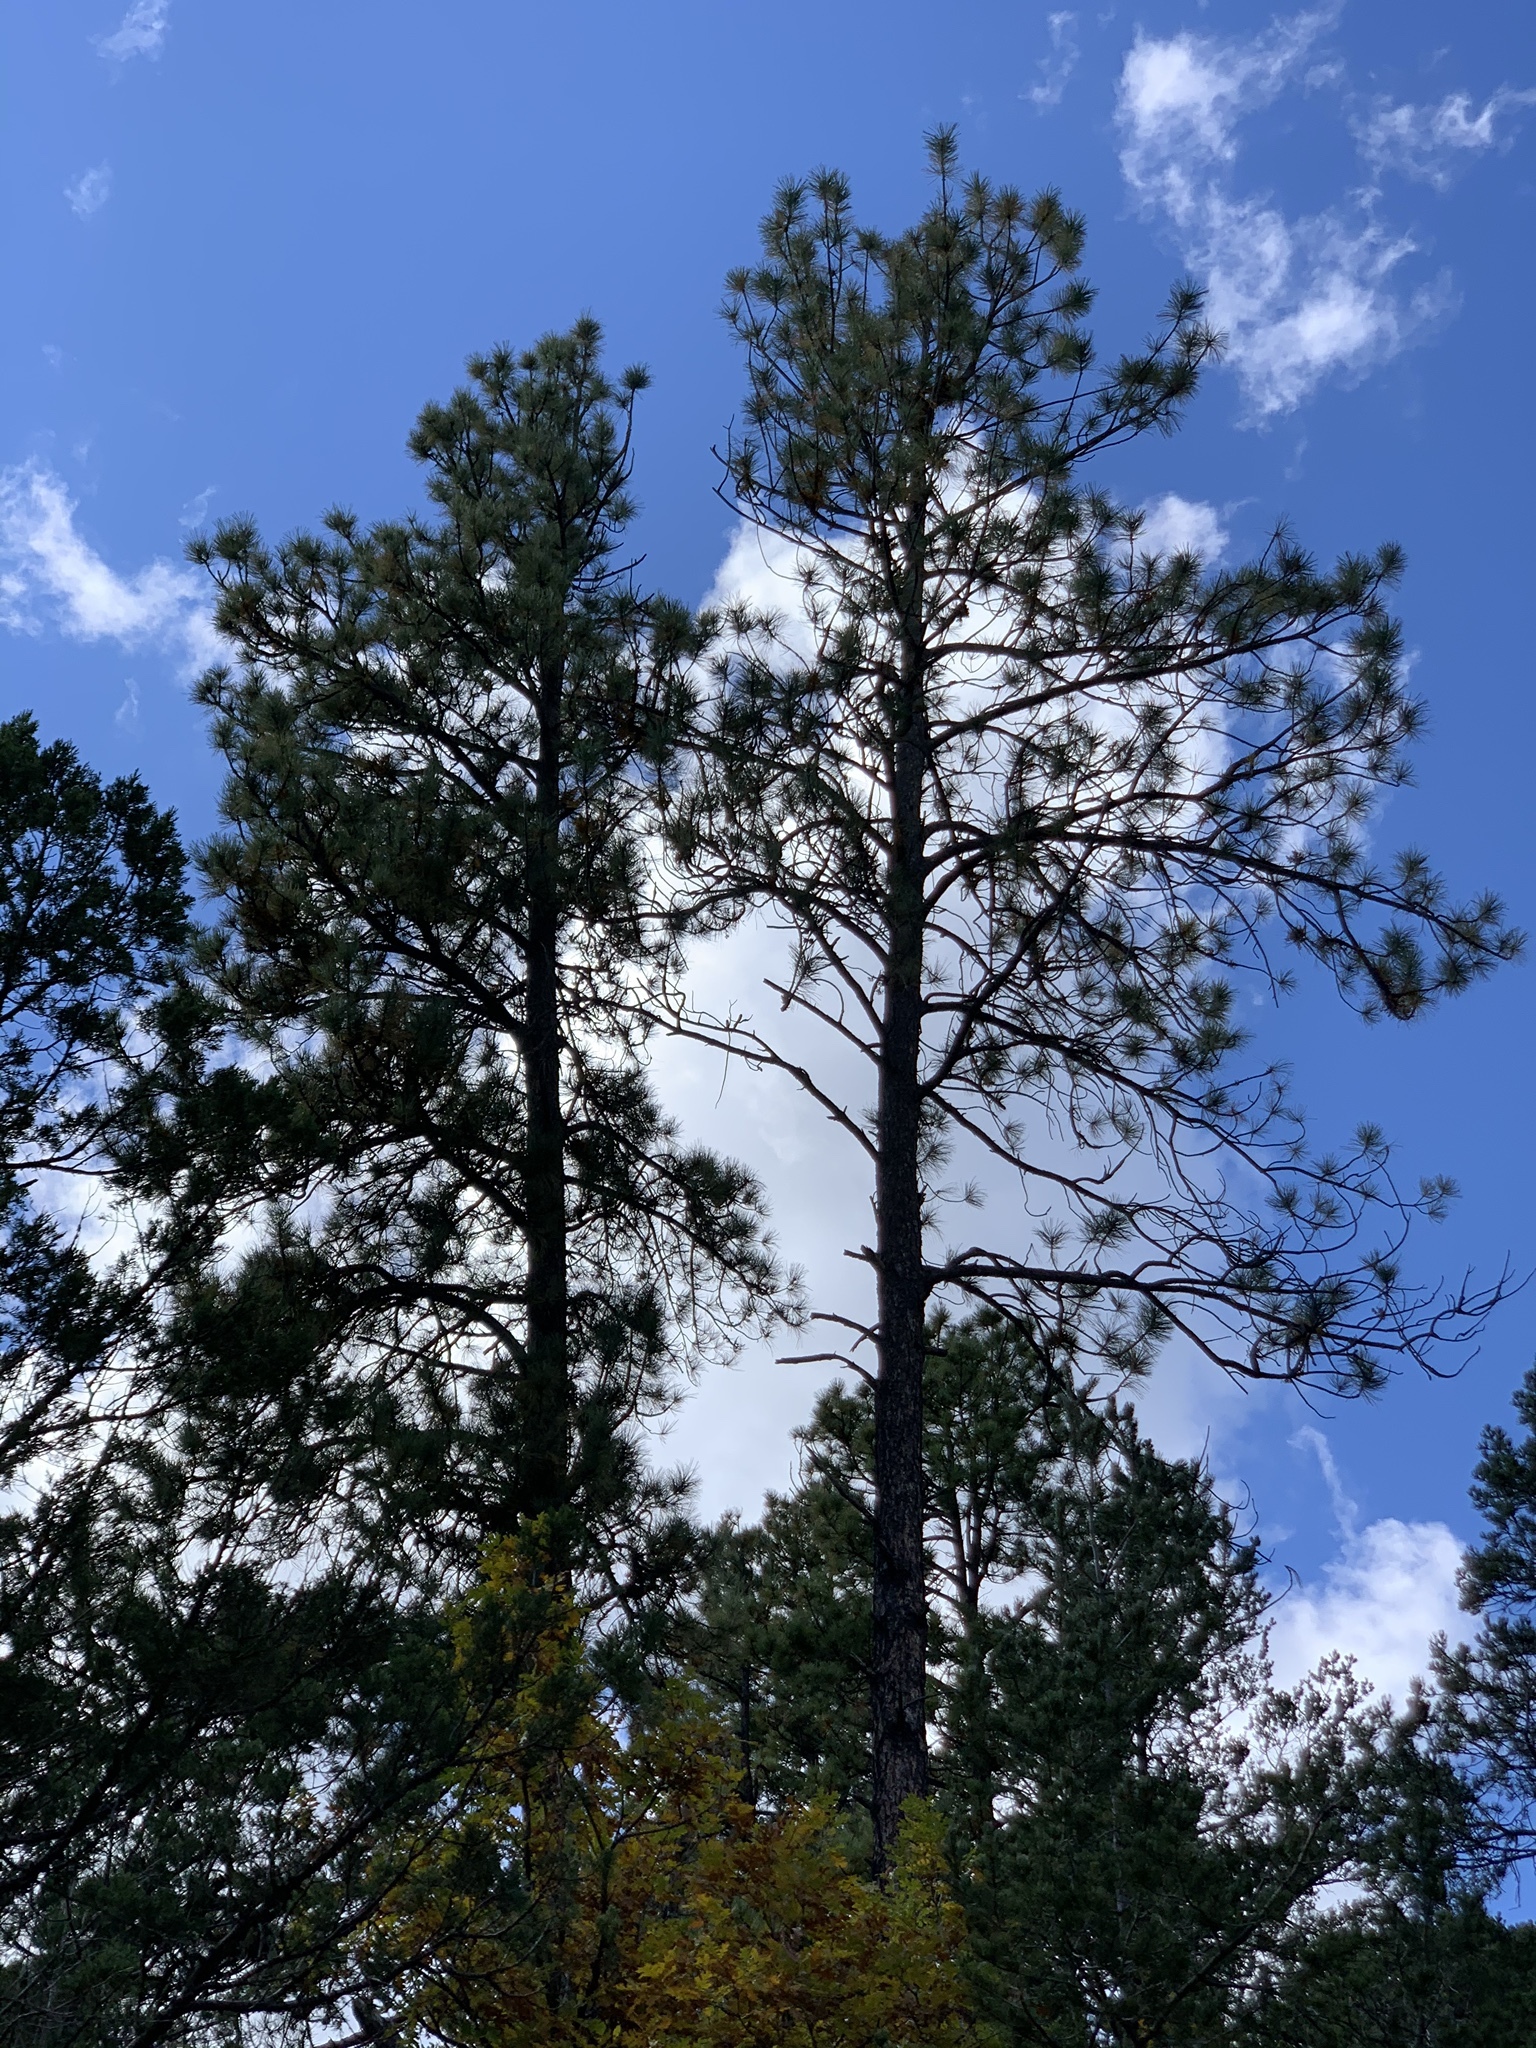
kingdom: Plantae
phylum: Tracheophyta
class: Pinopsida
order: Pinales
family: Pinaceae
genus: Pinus
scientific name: Pinus ponderosa
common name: Western yellow-pine
